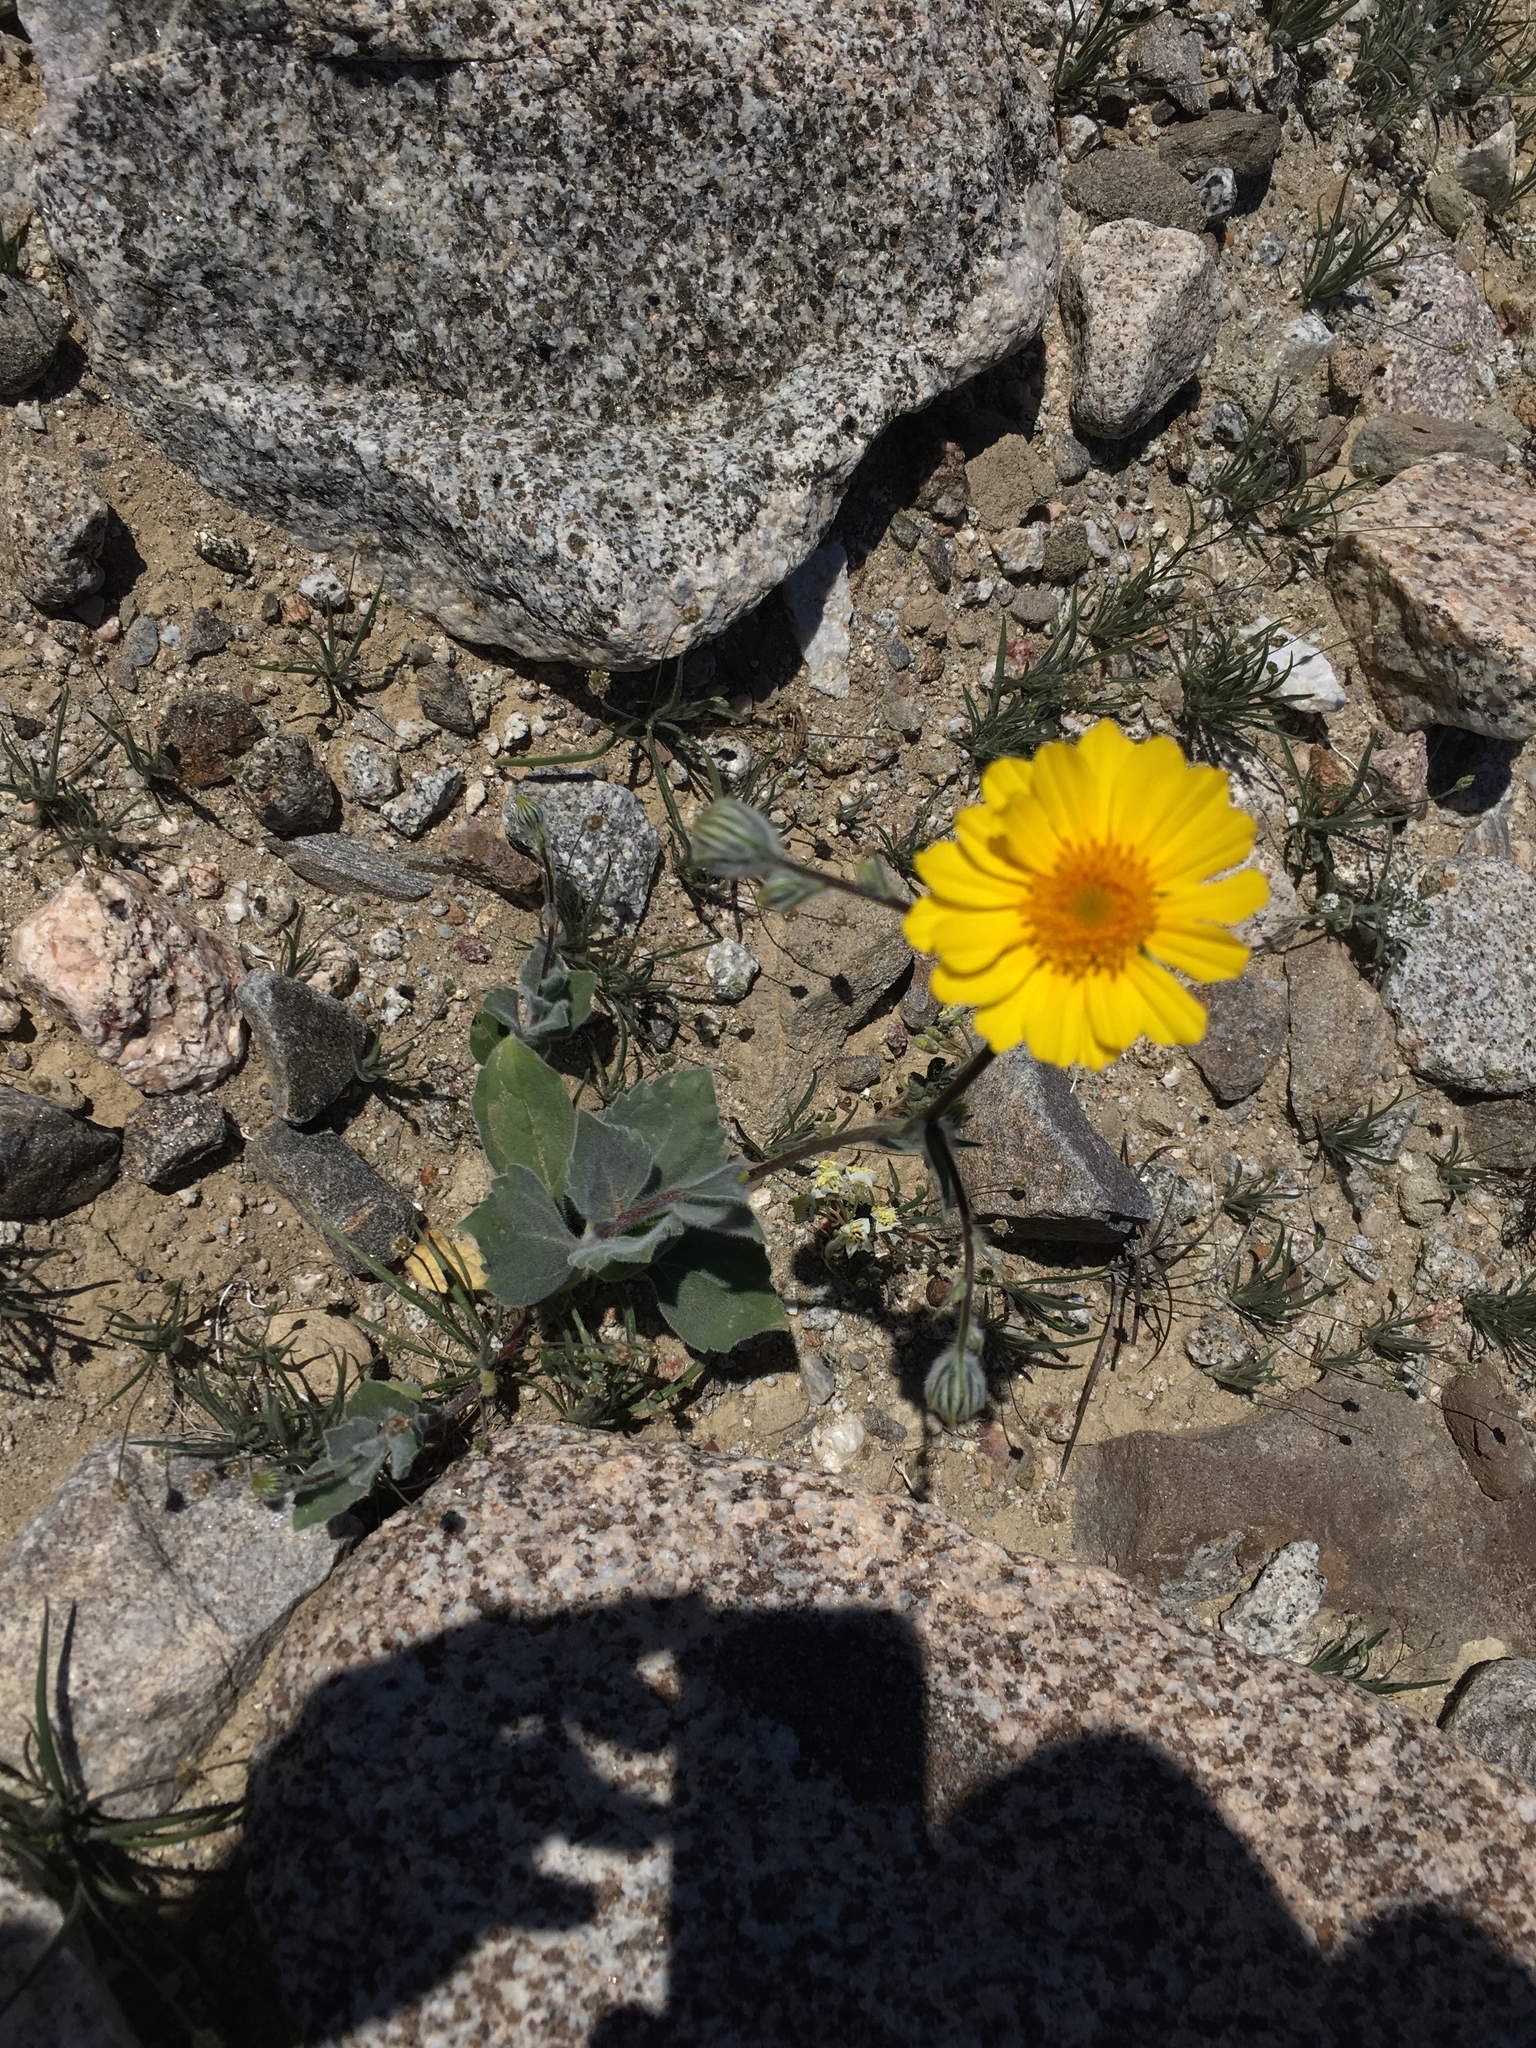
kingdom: Plantae
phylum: Tracheophyta
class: Magnoliopsida
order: Asterales
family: Asteraceae
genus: Geraea
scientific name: Geraea canescens
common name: Desert-gold
